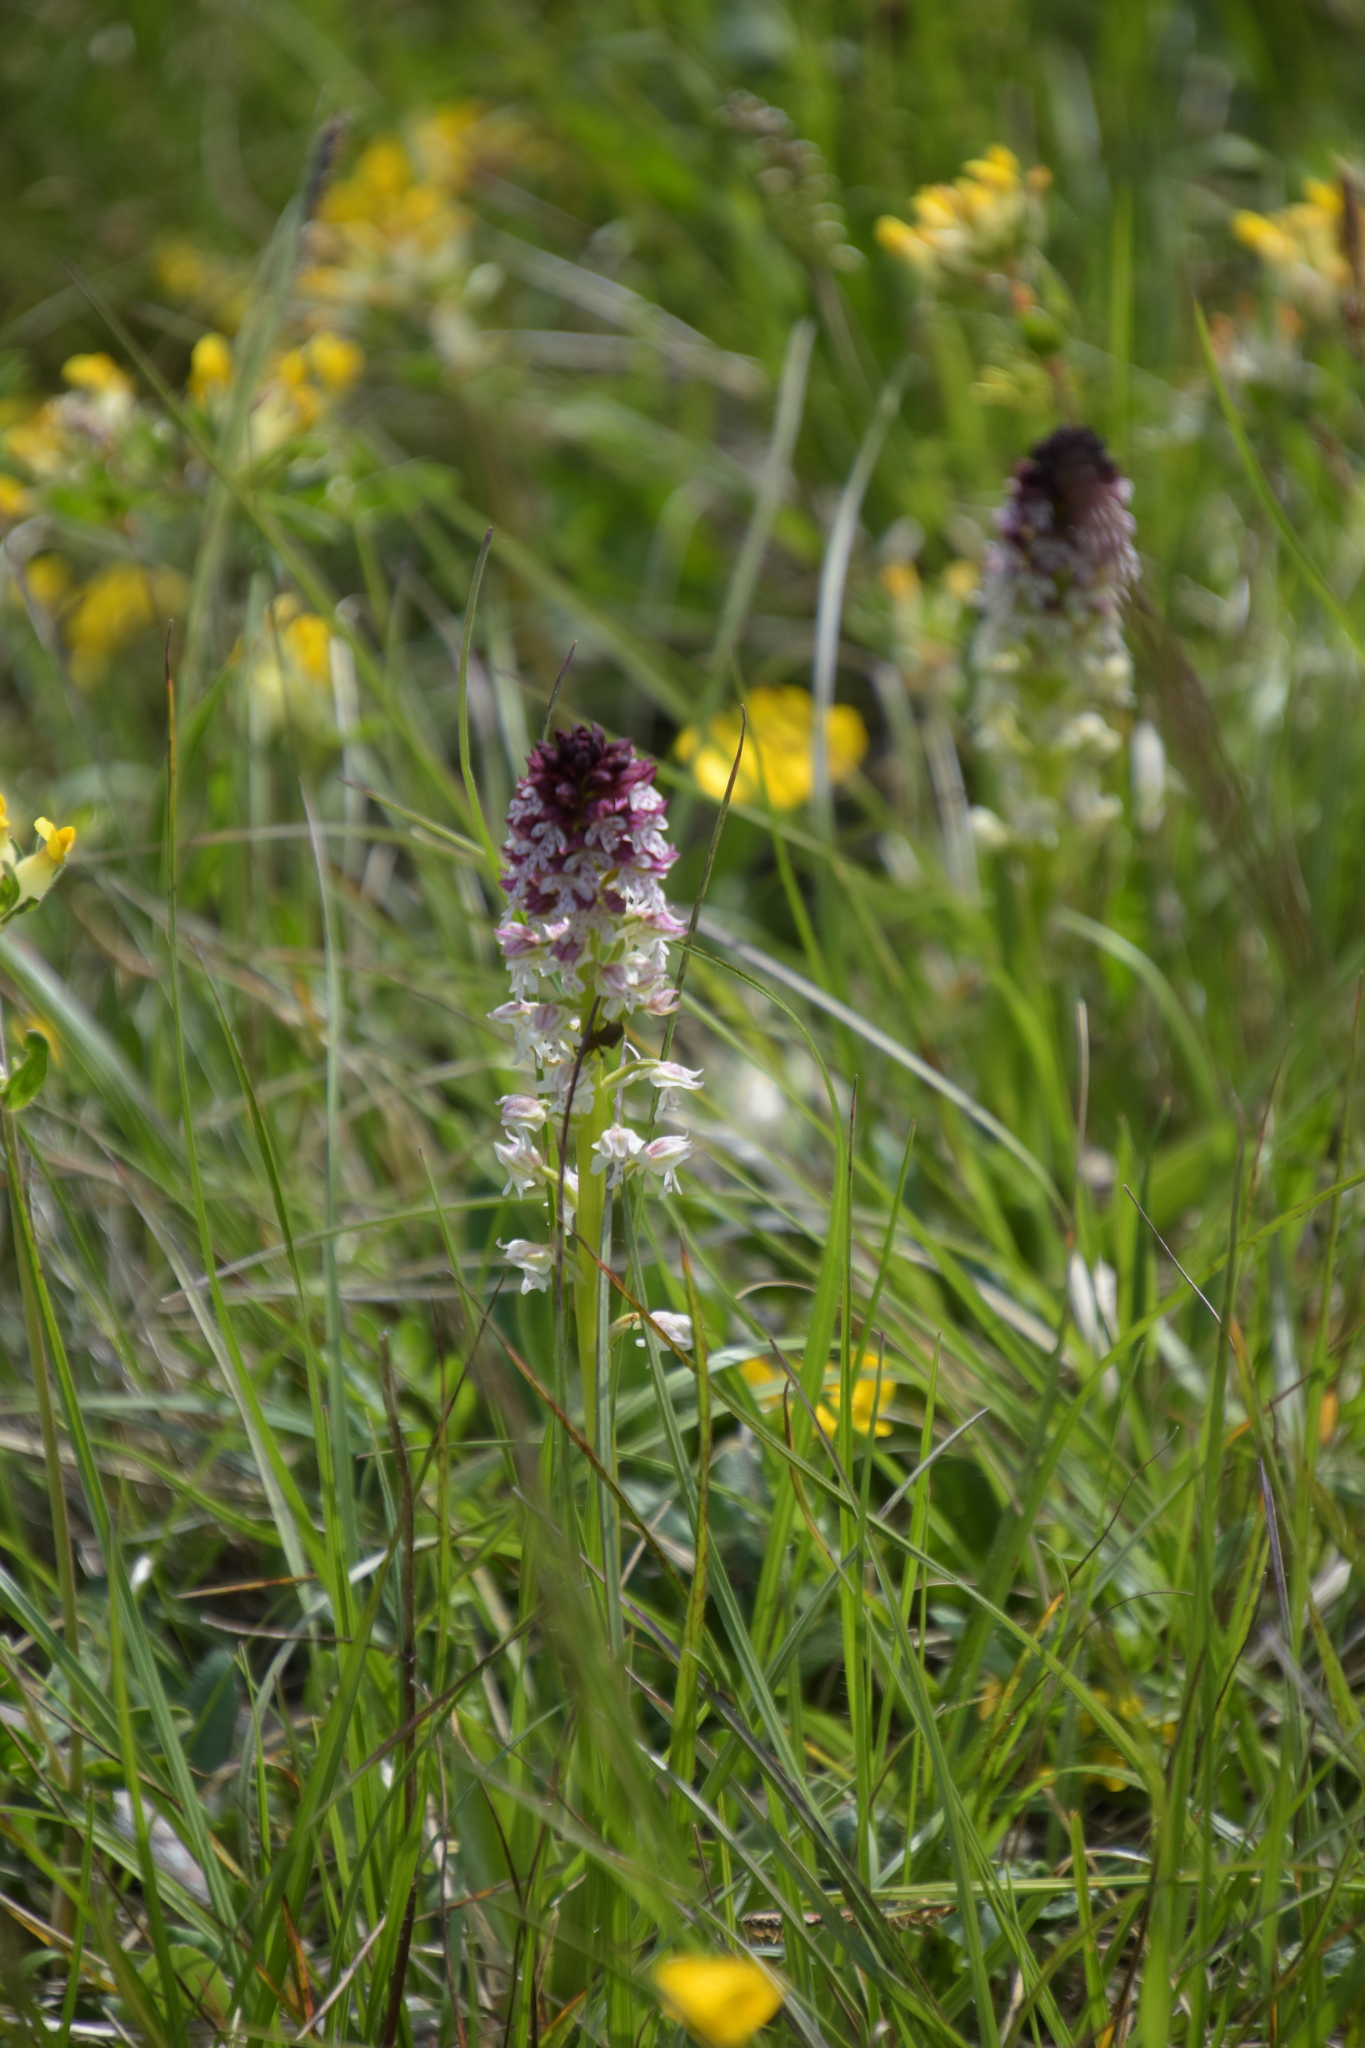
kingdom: Plantae
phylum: Tracheophyta
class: Liliopsida
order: Asparagales
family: Orchidaceae
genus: Neotinea
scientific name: Neotinea ustulata
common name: Burnt orchid
